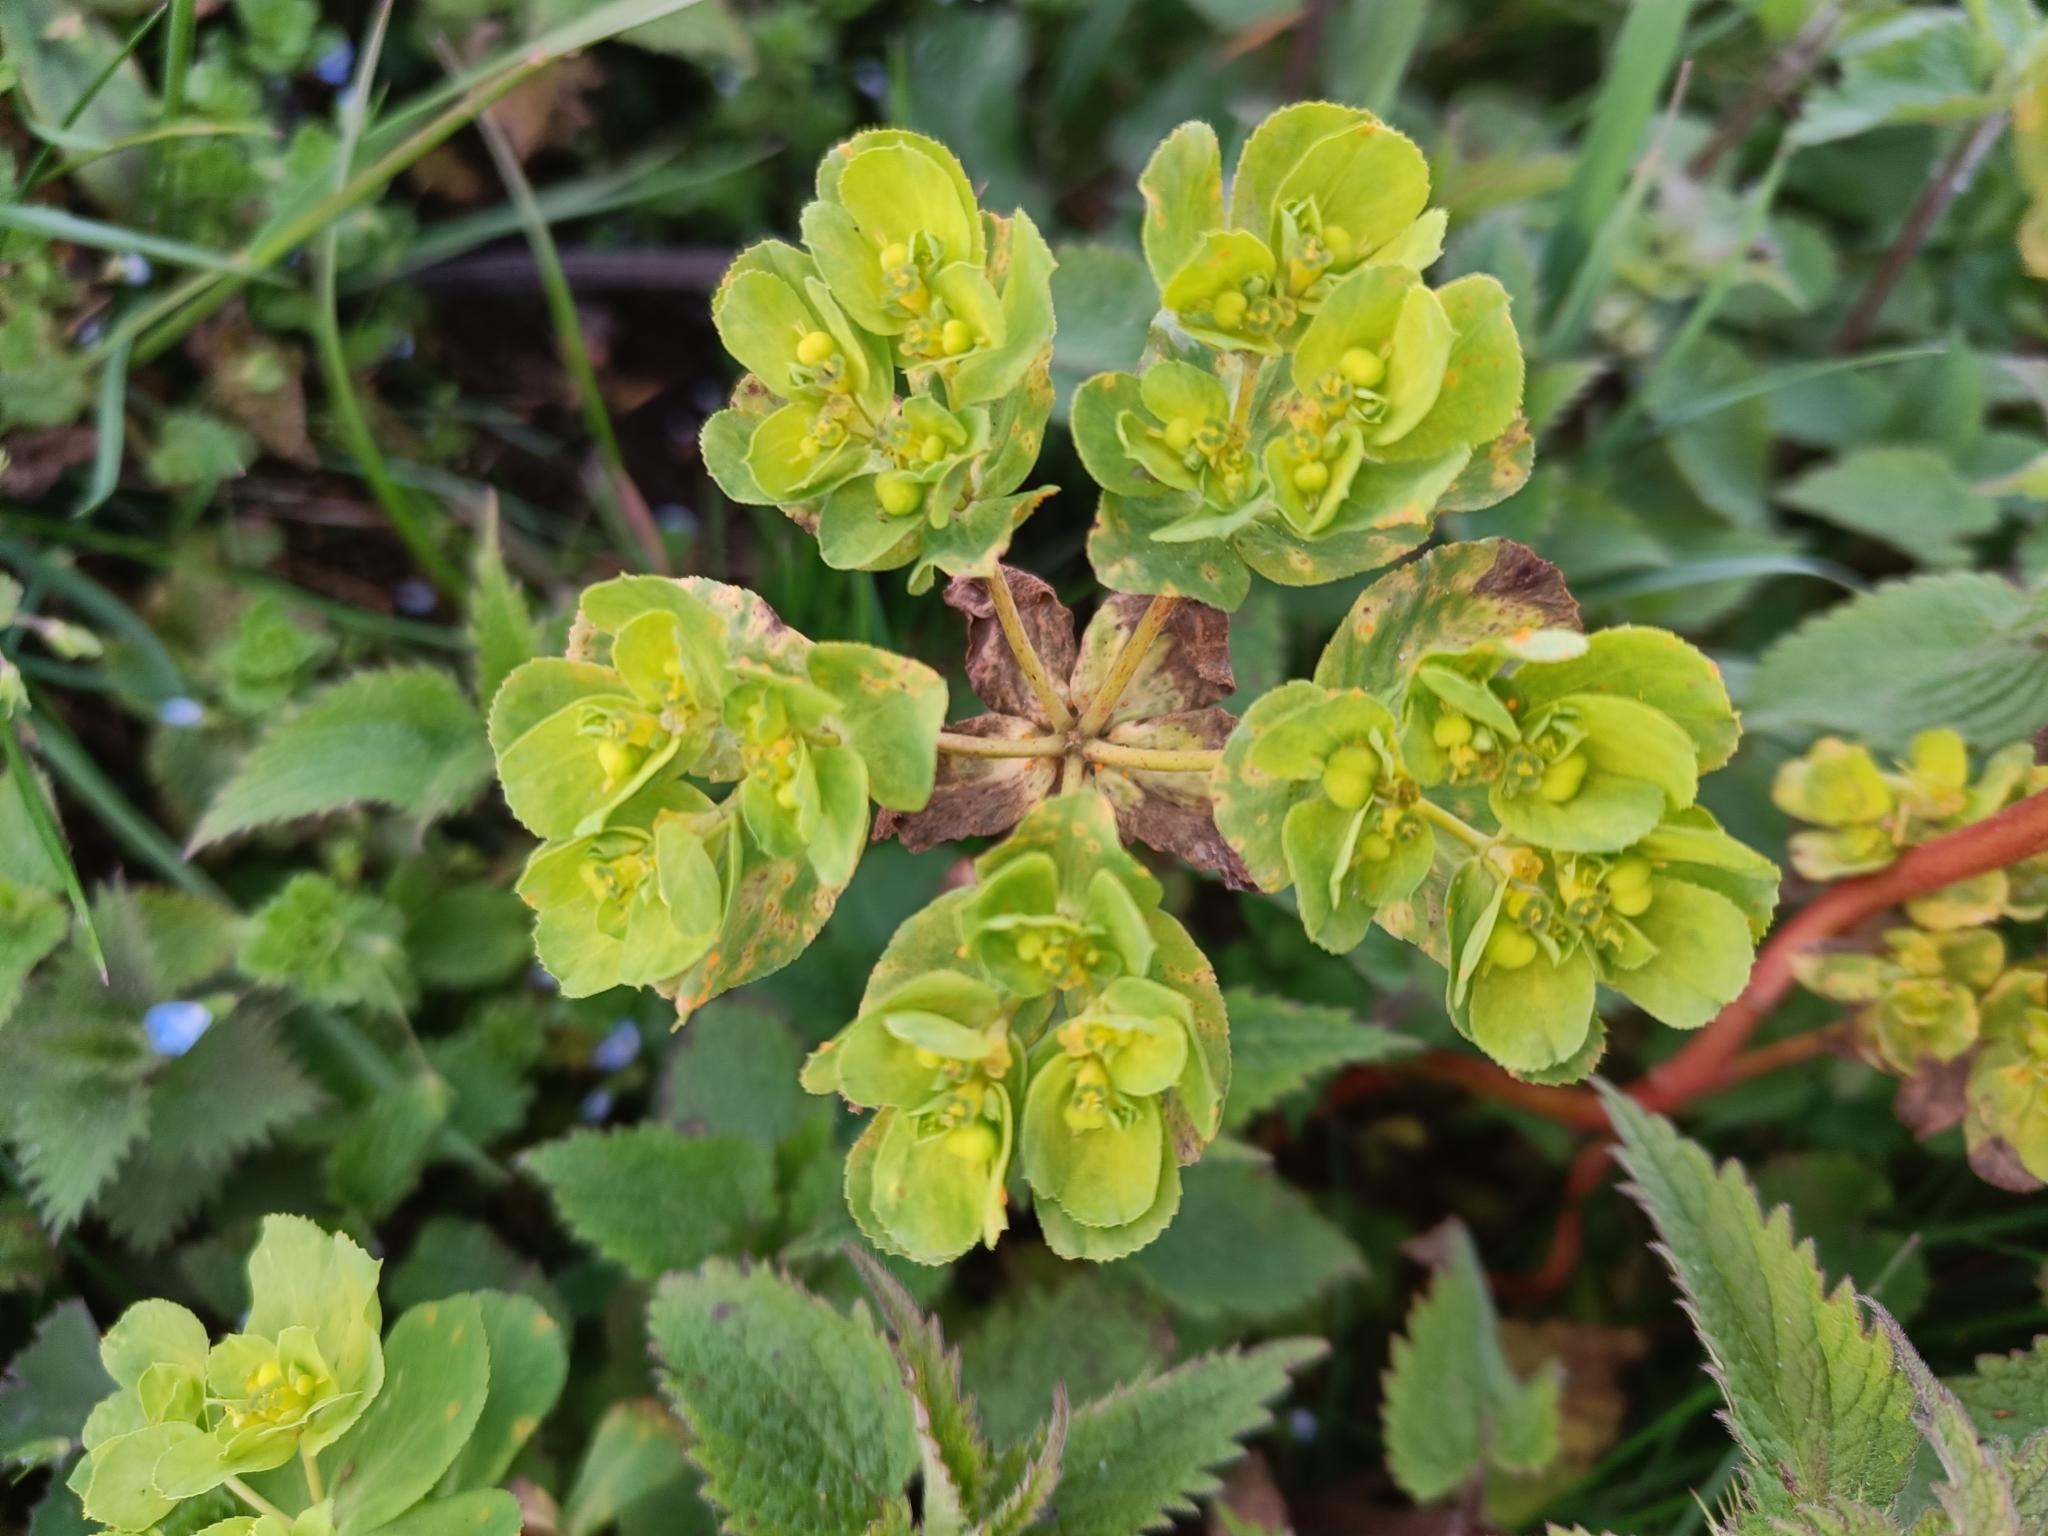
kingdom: Plantae
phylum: Tracheophyta
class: Magnoliopsida
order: Malpighiales
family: Euphorbiaceae
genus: Euphorbia
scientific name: Euphorbia helioscopia
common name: Sun spurge
